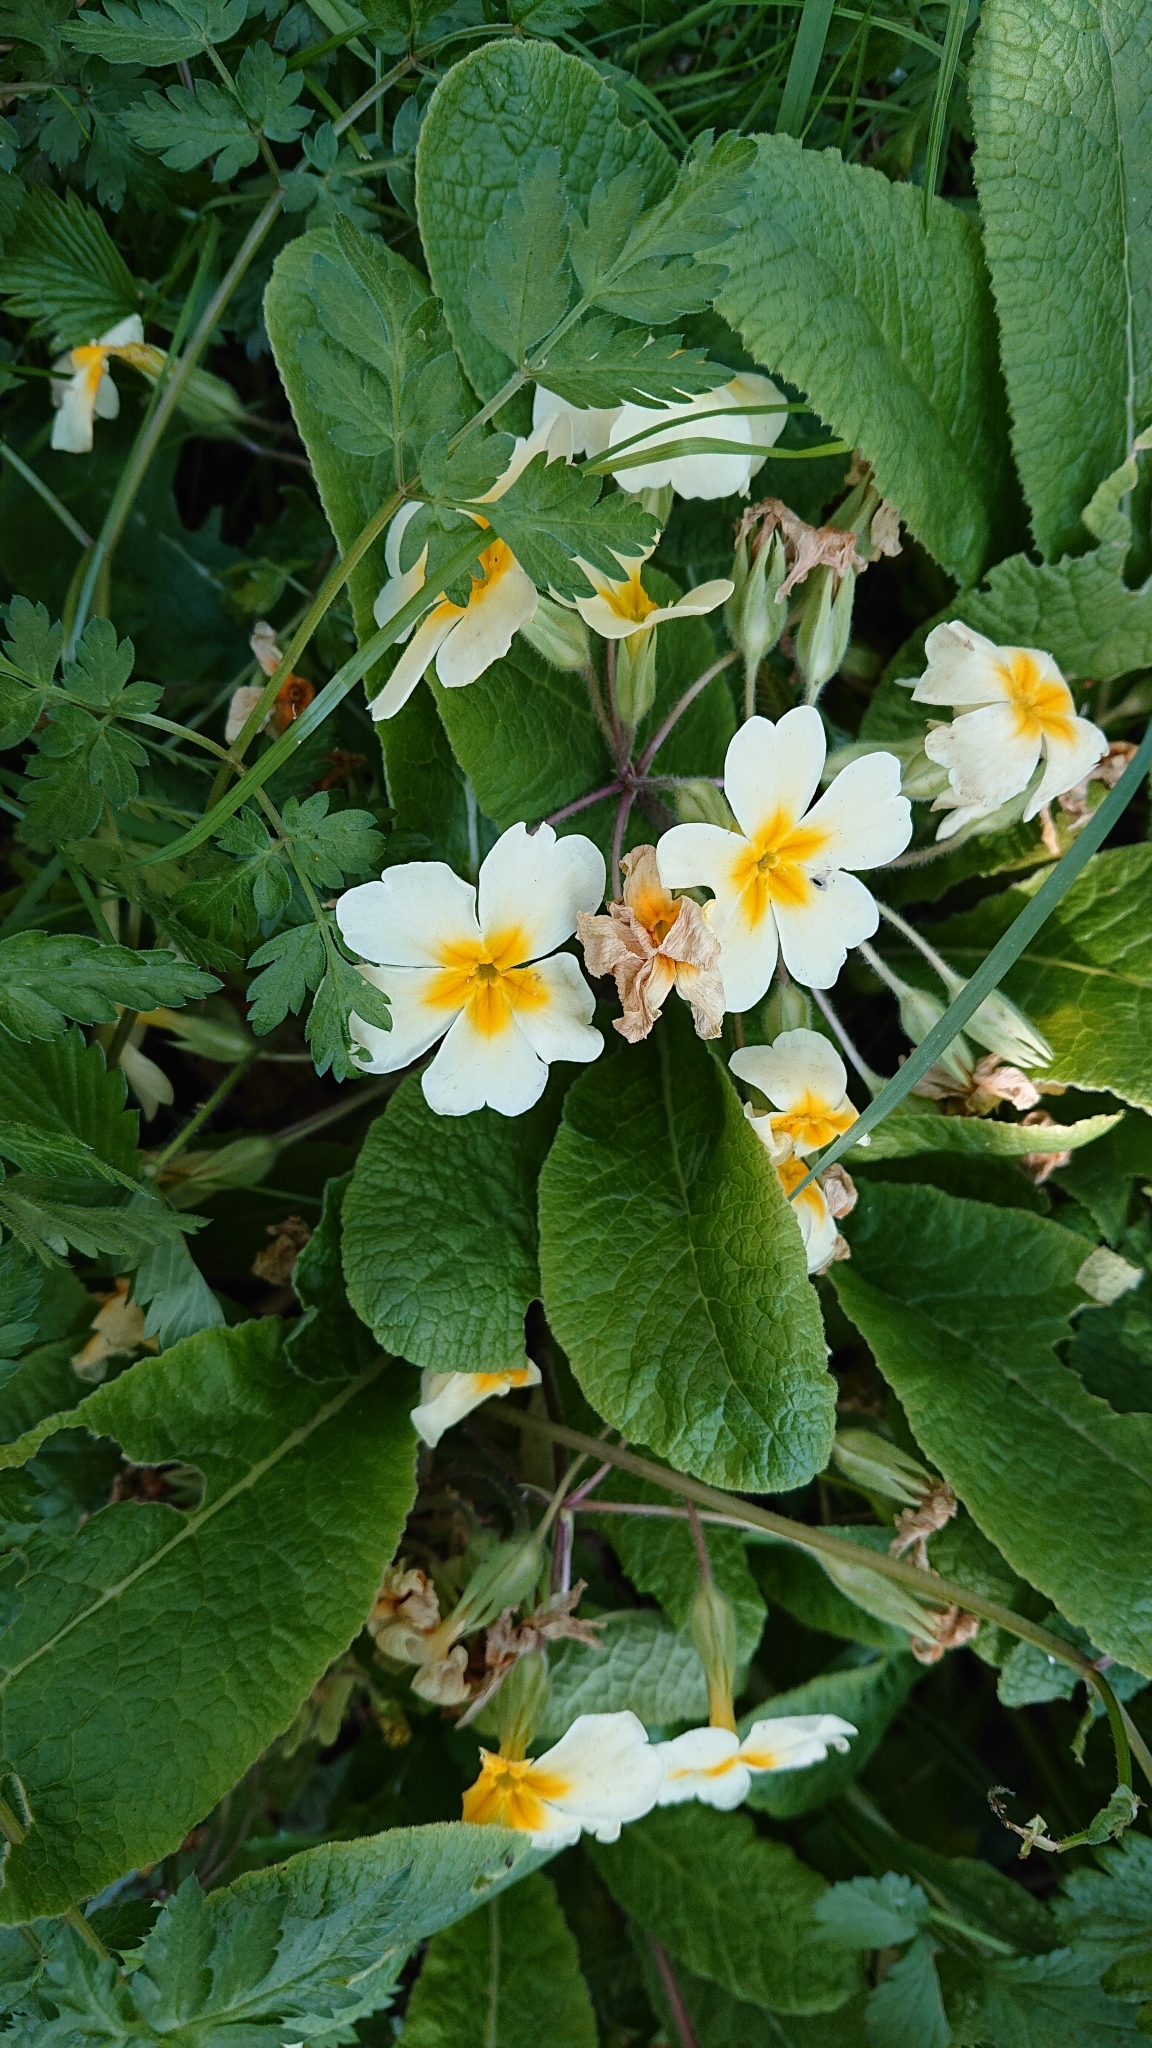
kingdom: Plantae
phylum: Tracheophyta
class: Magnoliopsida
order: Ericales
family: Primulaceae
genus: Primula
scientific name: Primula vulgaris
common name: Primrose
